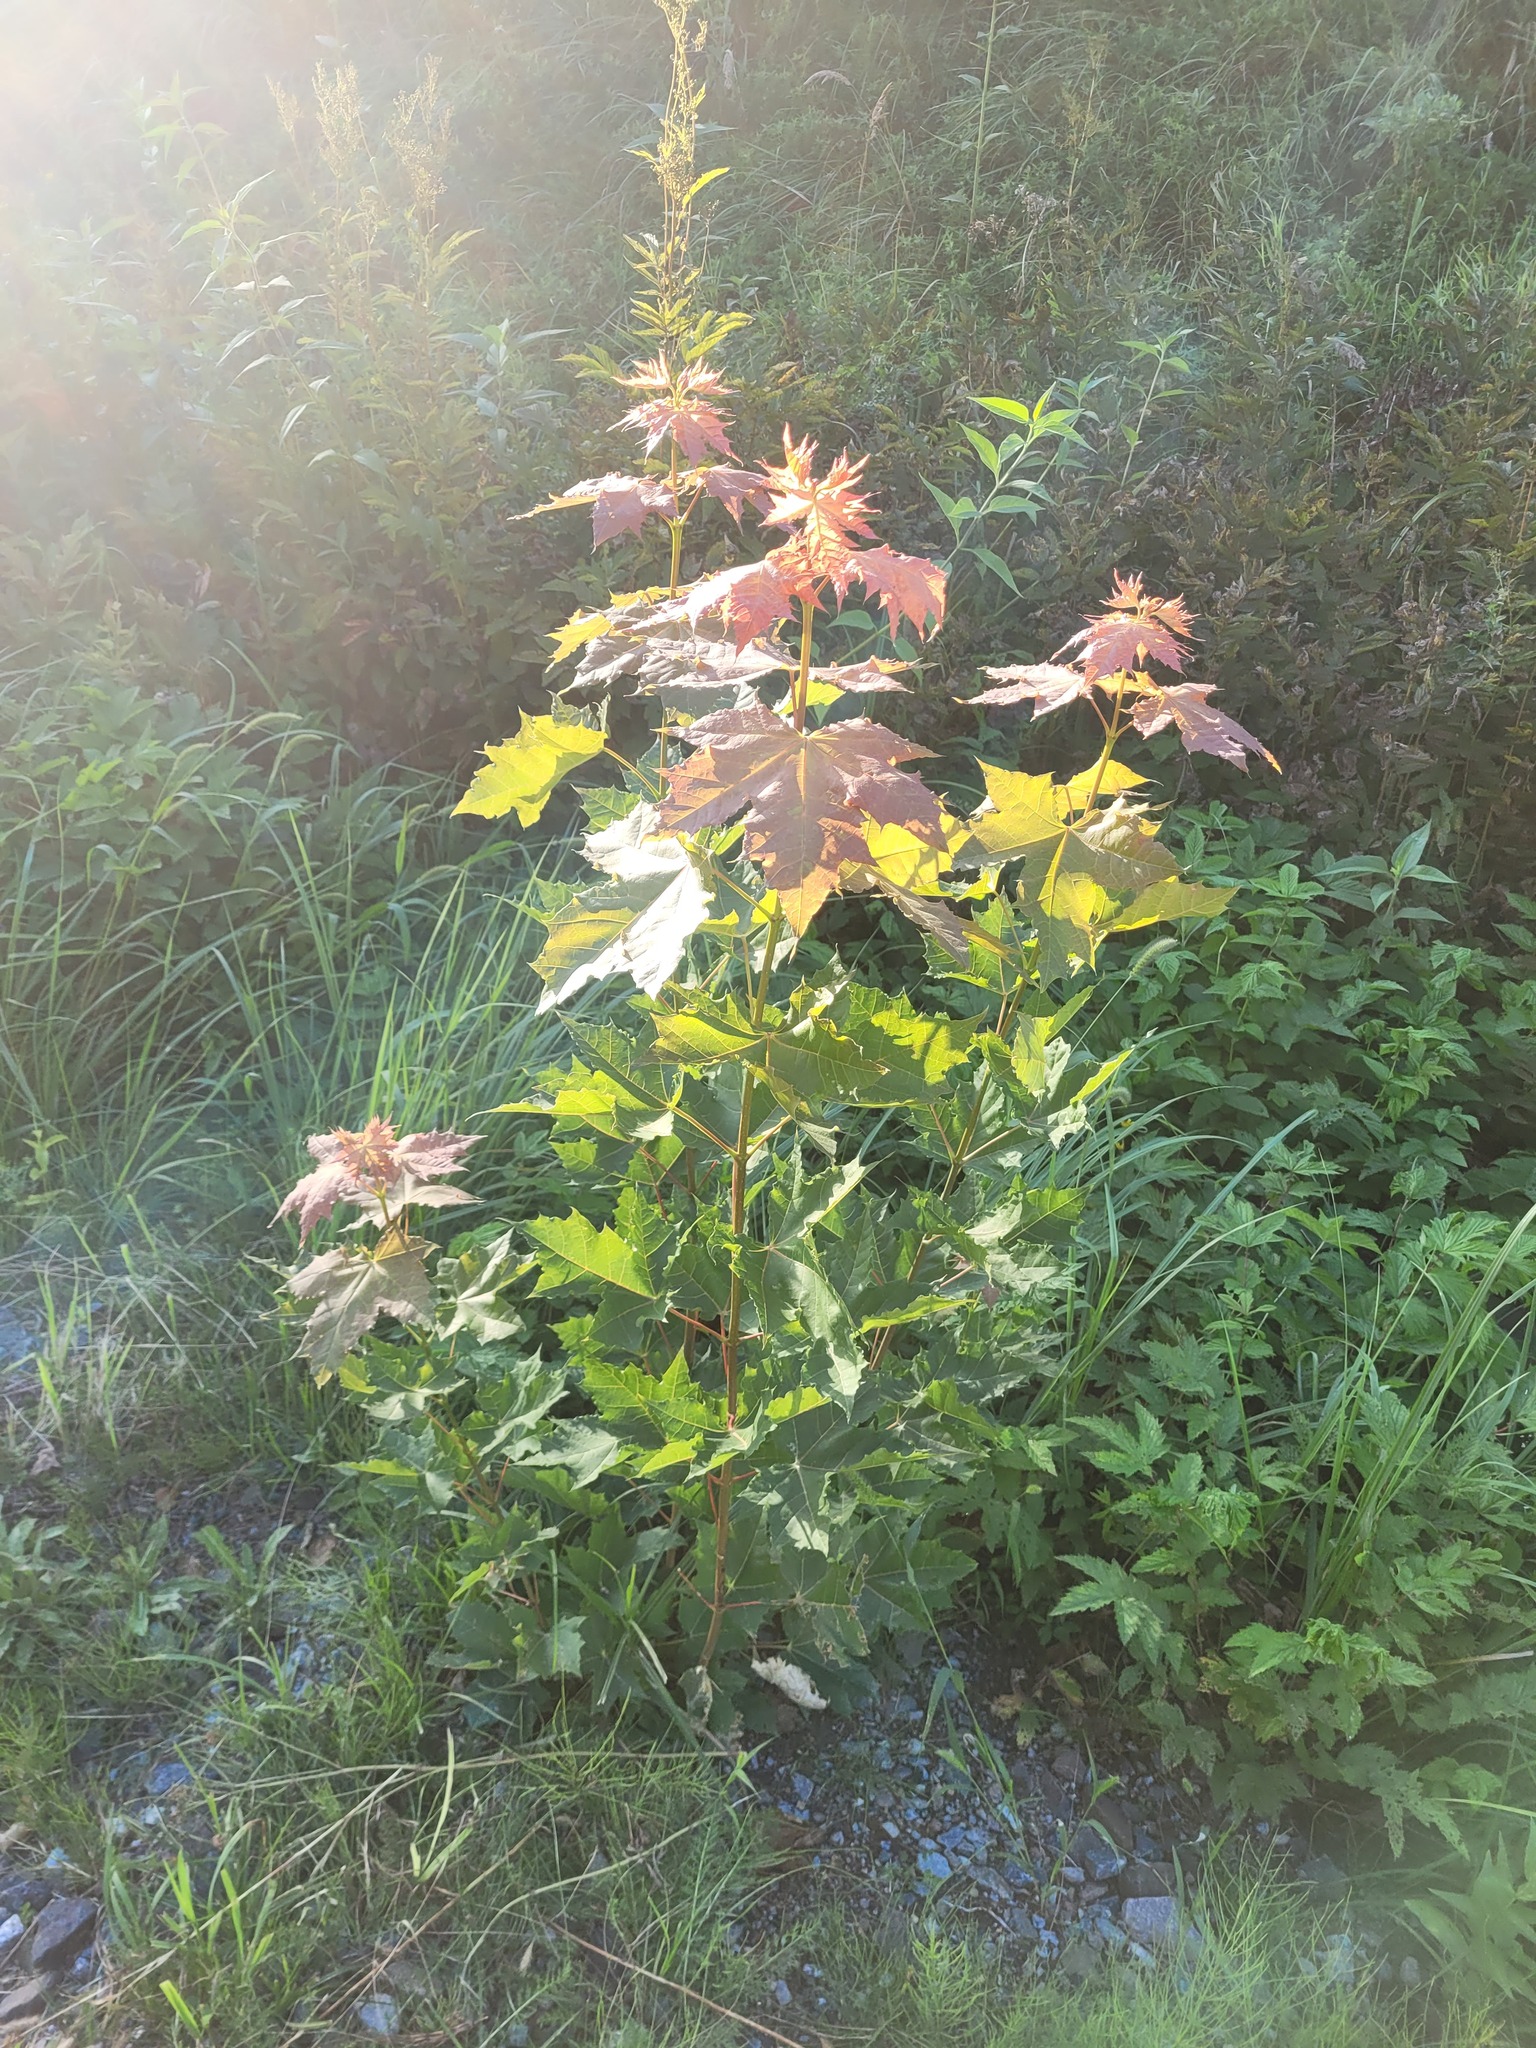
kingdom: Plantae
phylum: Tracheophyta
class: Magnoliopsida
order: Sapindales
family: Sapindaceae
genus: Acer
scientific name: Acer platanoides
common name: Norway maple
